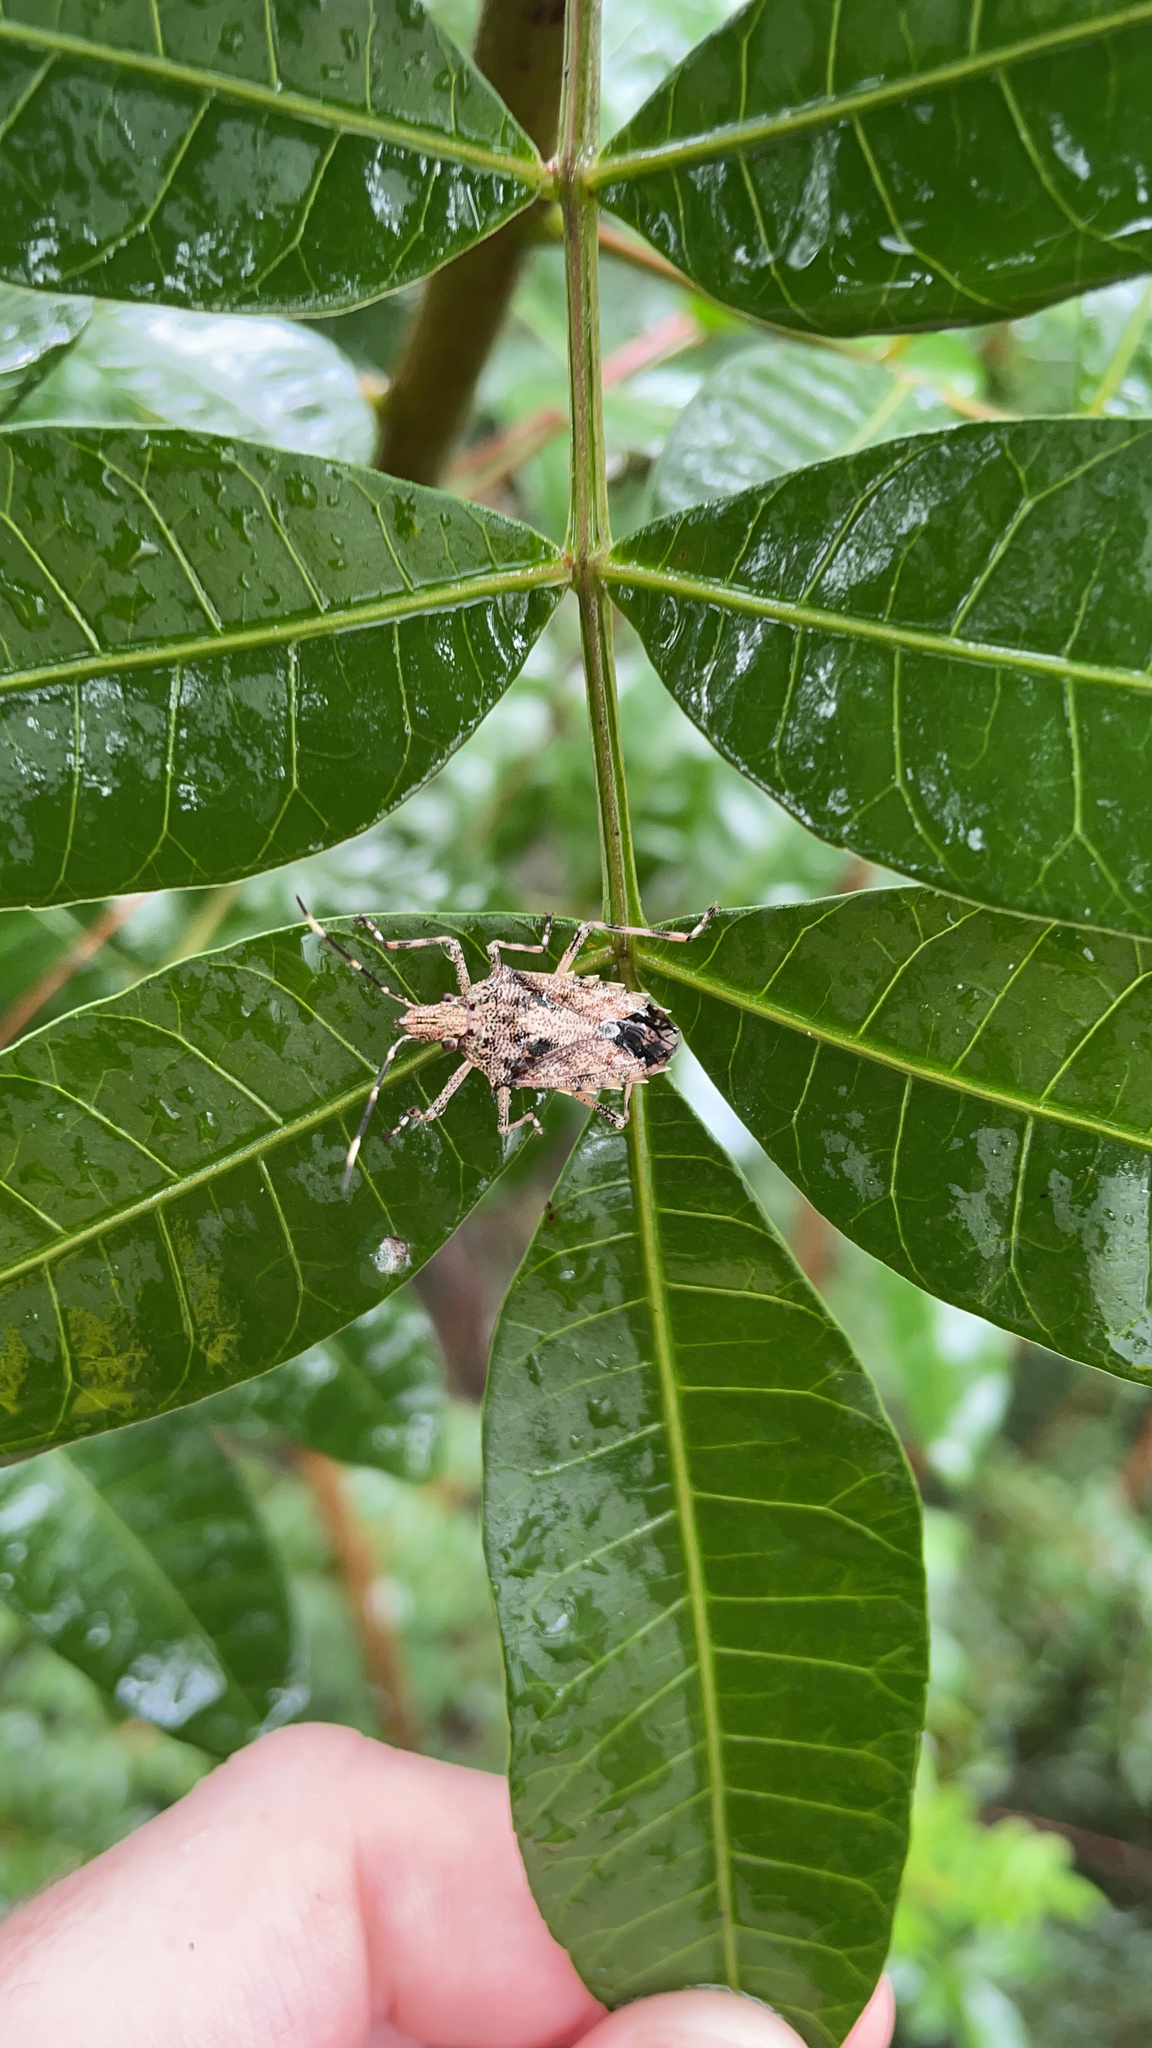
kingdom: Animalia
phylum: Arthropoda
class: Insecta
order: Hemiptera
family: Pentatomidae
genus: Bromocoris
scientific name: Bromocoris
